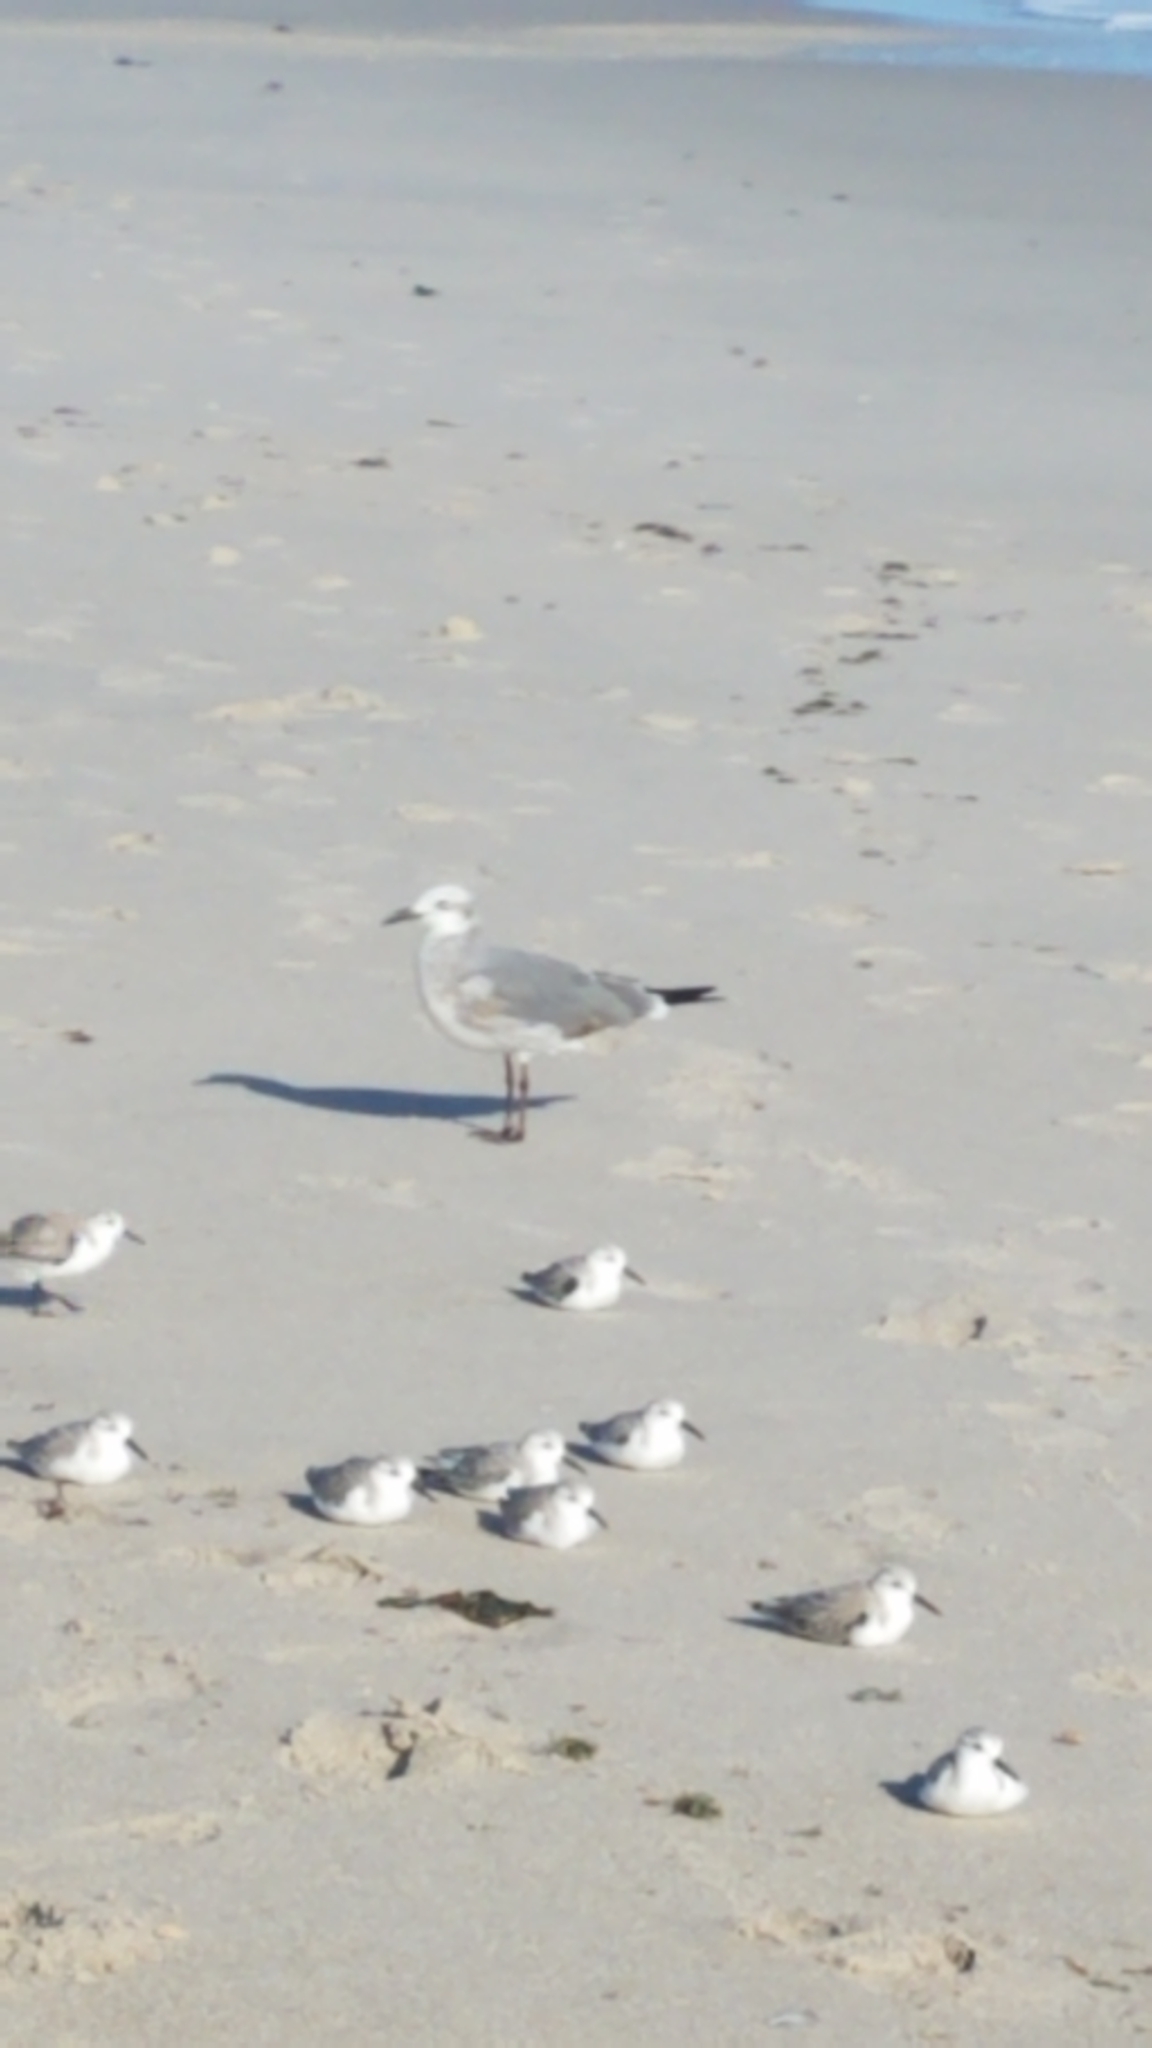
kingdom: Animalia
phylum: Chordata
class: Aves
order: Charadriiformes
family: Laridae
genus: Leucophaeus
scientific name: Leucophaeus atricilla
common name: Laughing gull
